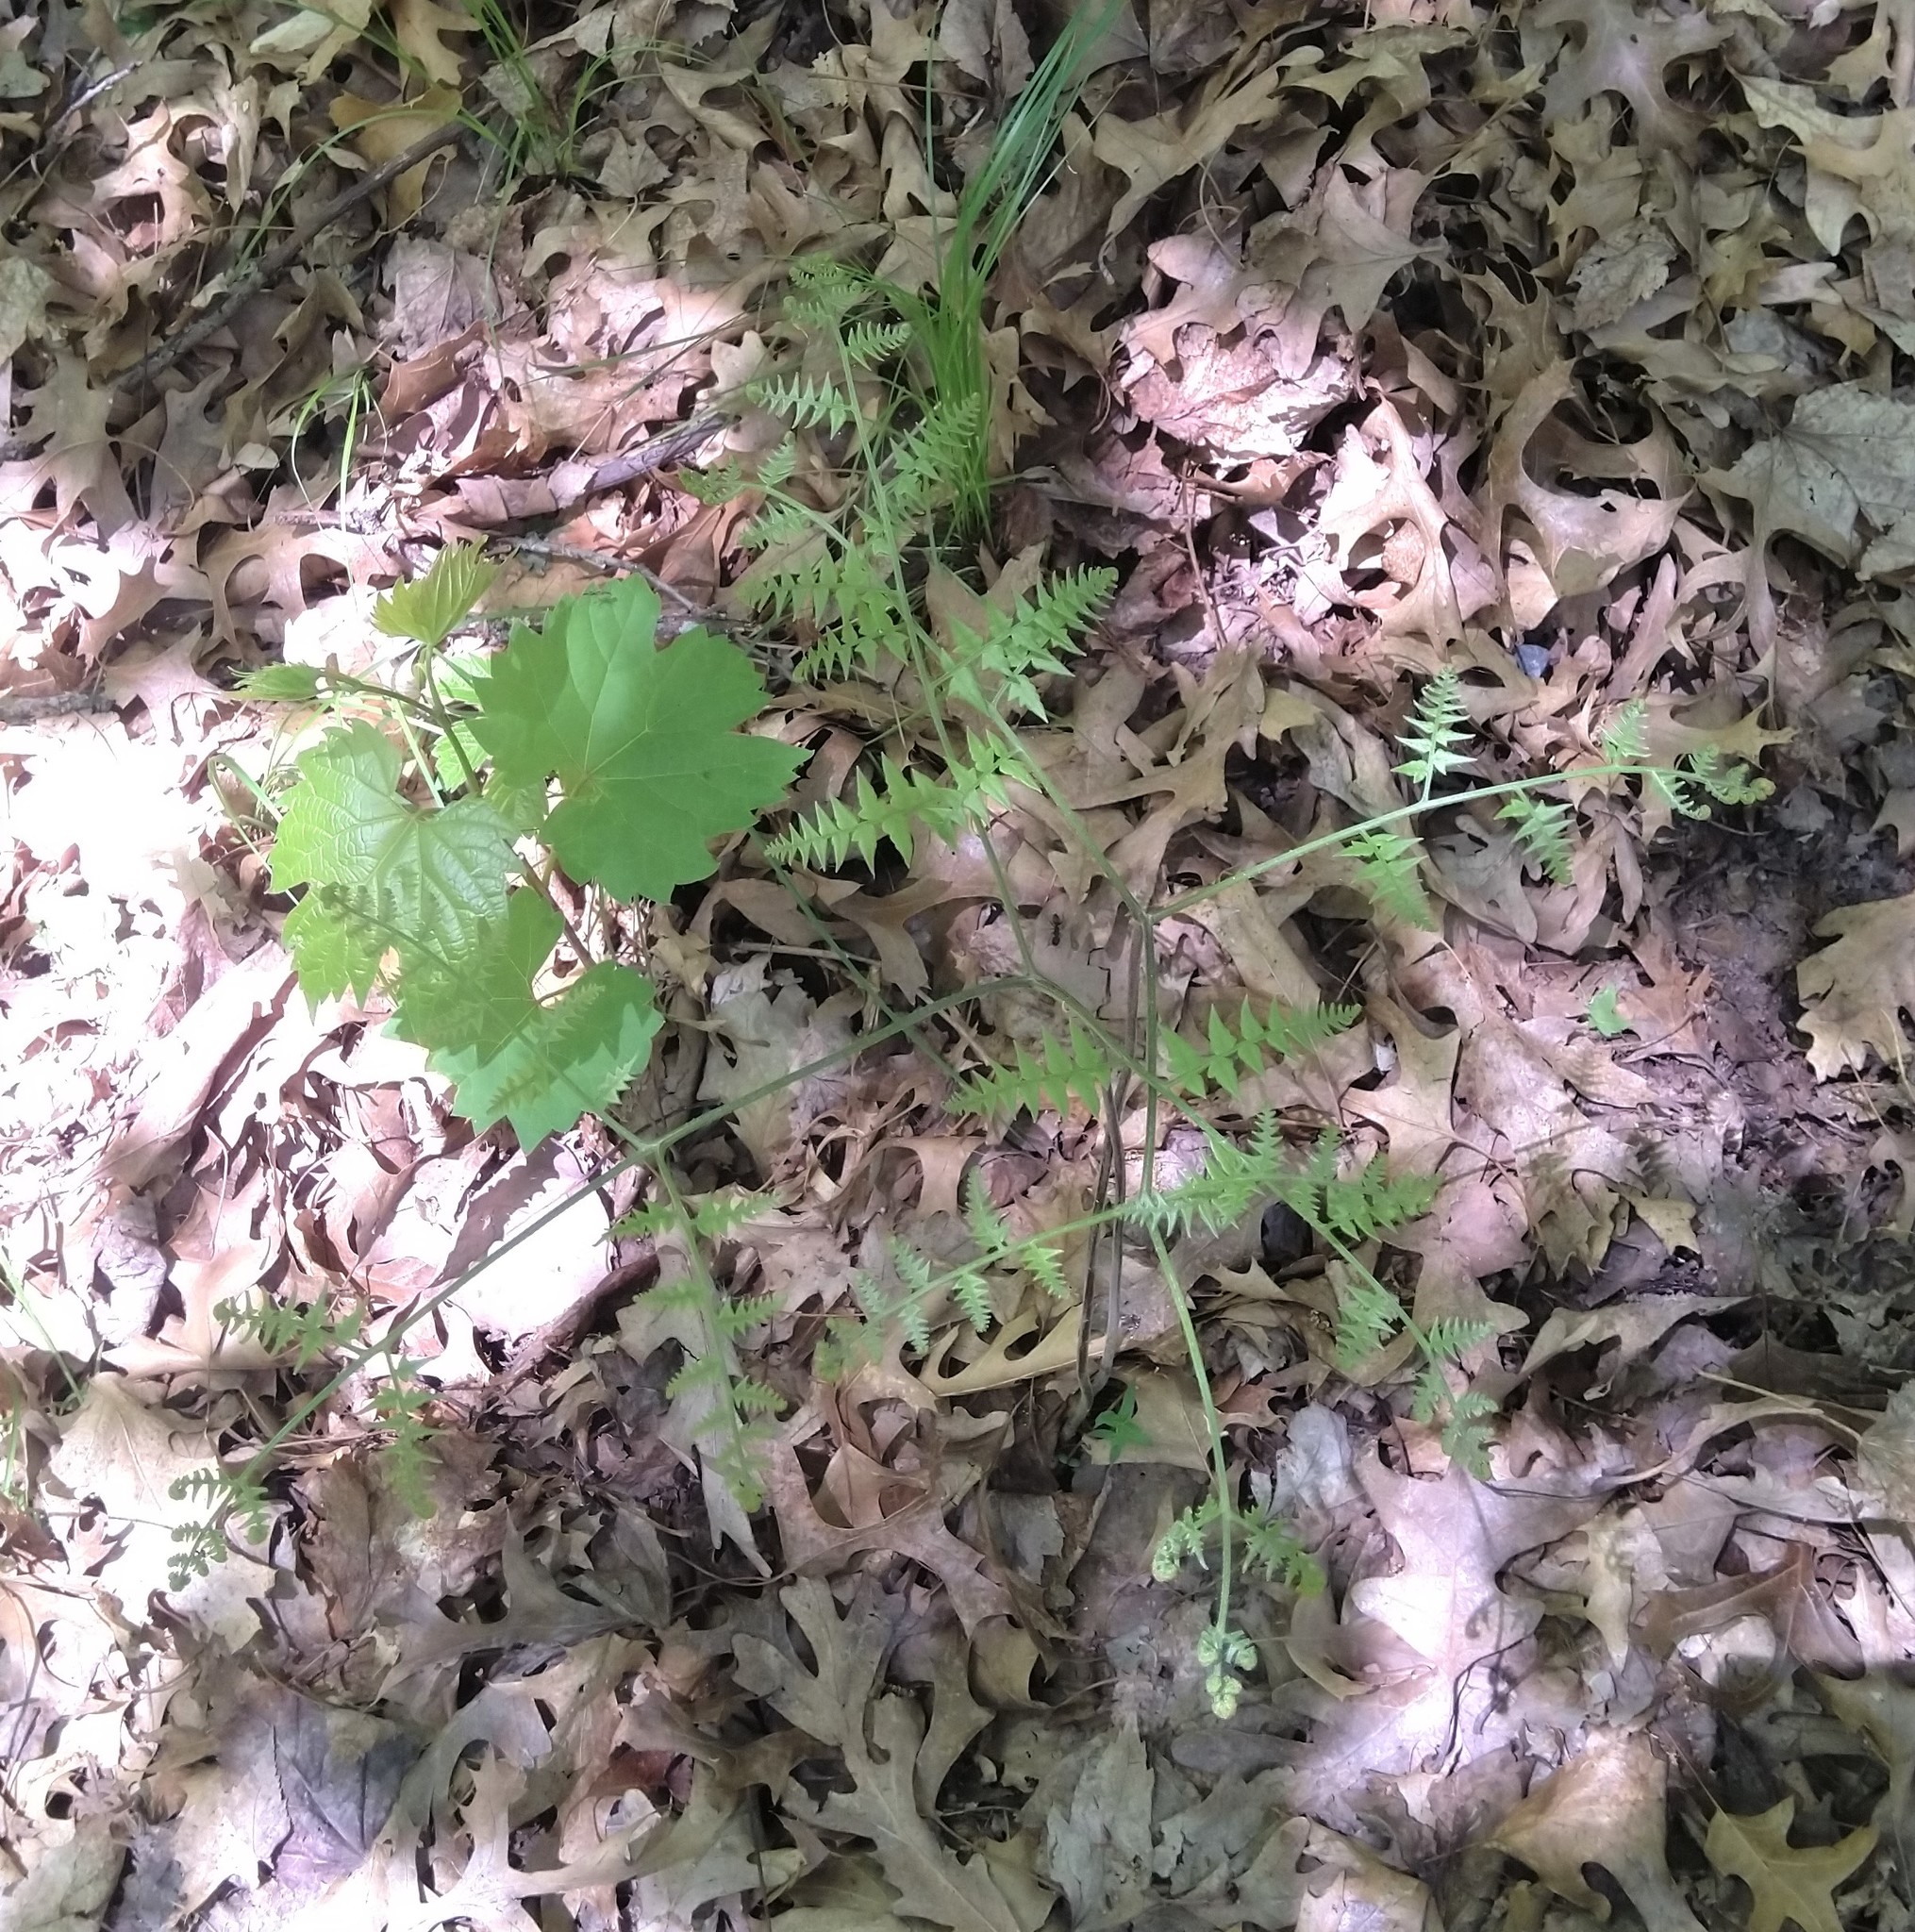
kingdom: Plantae
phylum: Tracheophyta
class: Polypodiopsida
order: Polypodiales
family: Dennstaedtiaceae
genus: Pteridium
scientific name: Pteridium aquilinum
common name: Bracken
